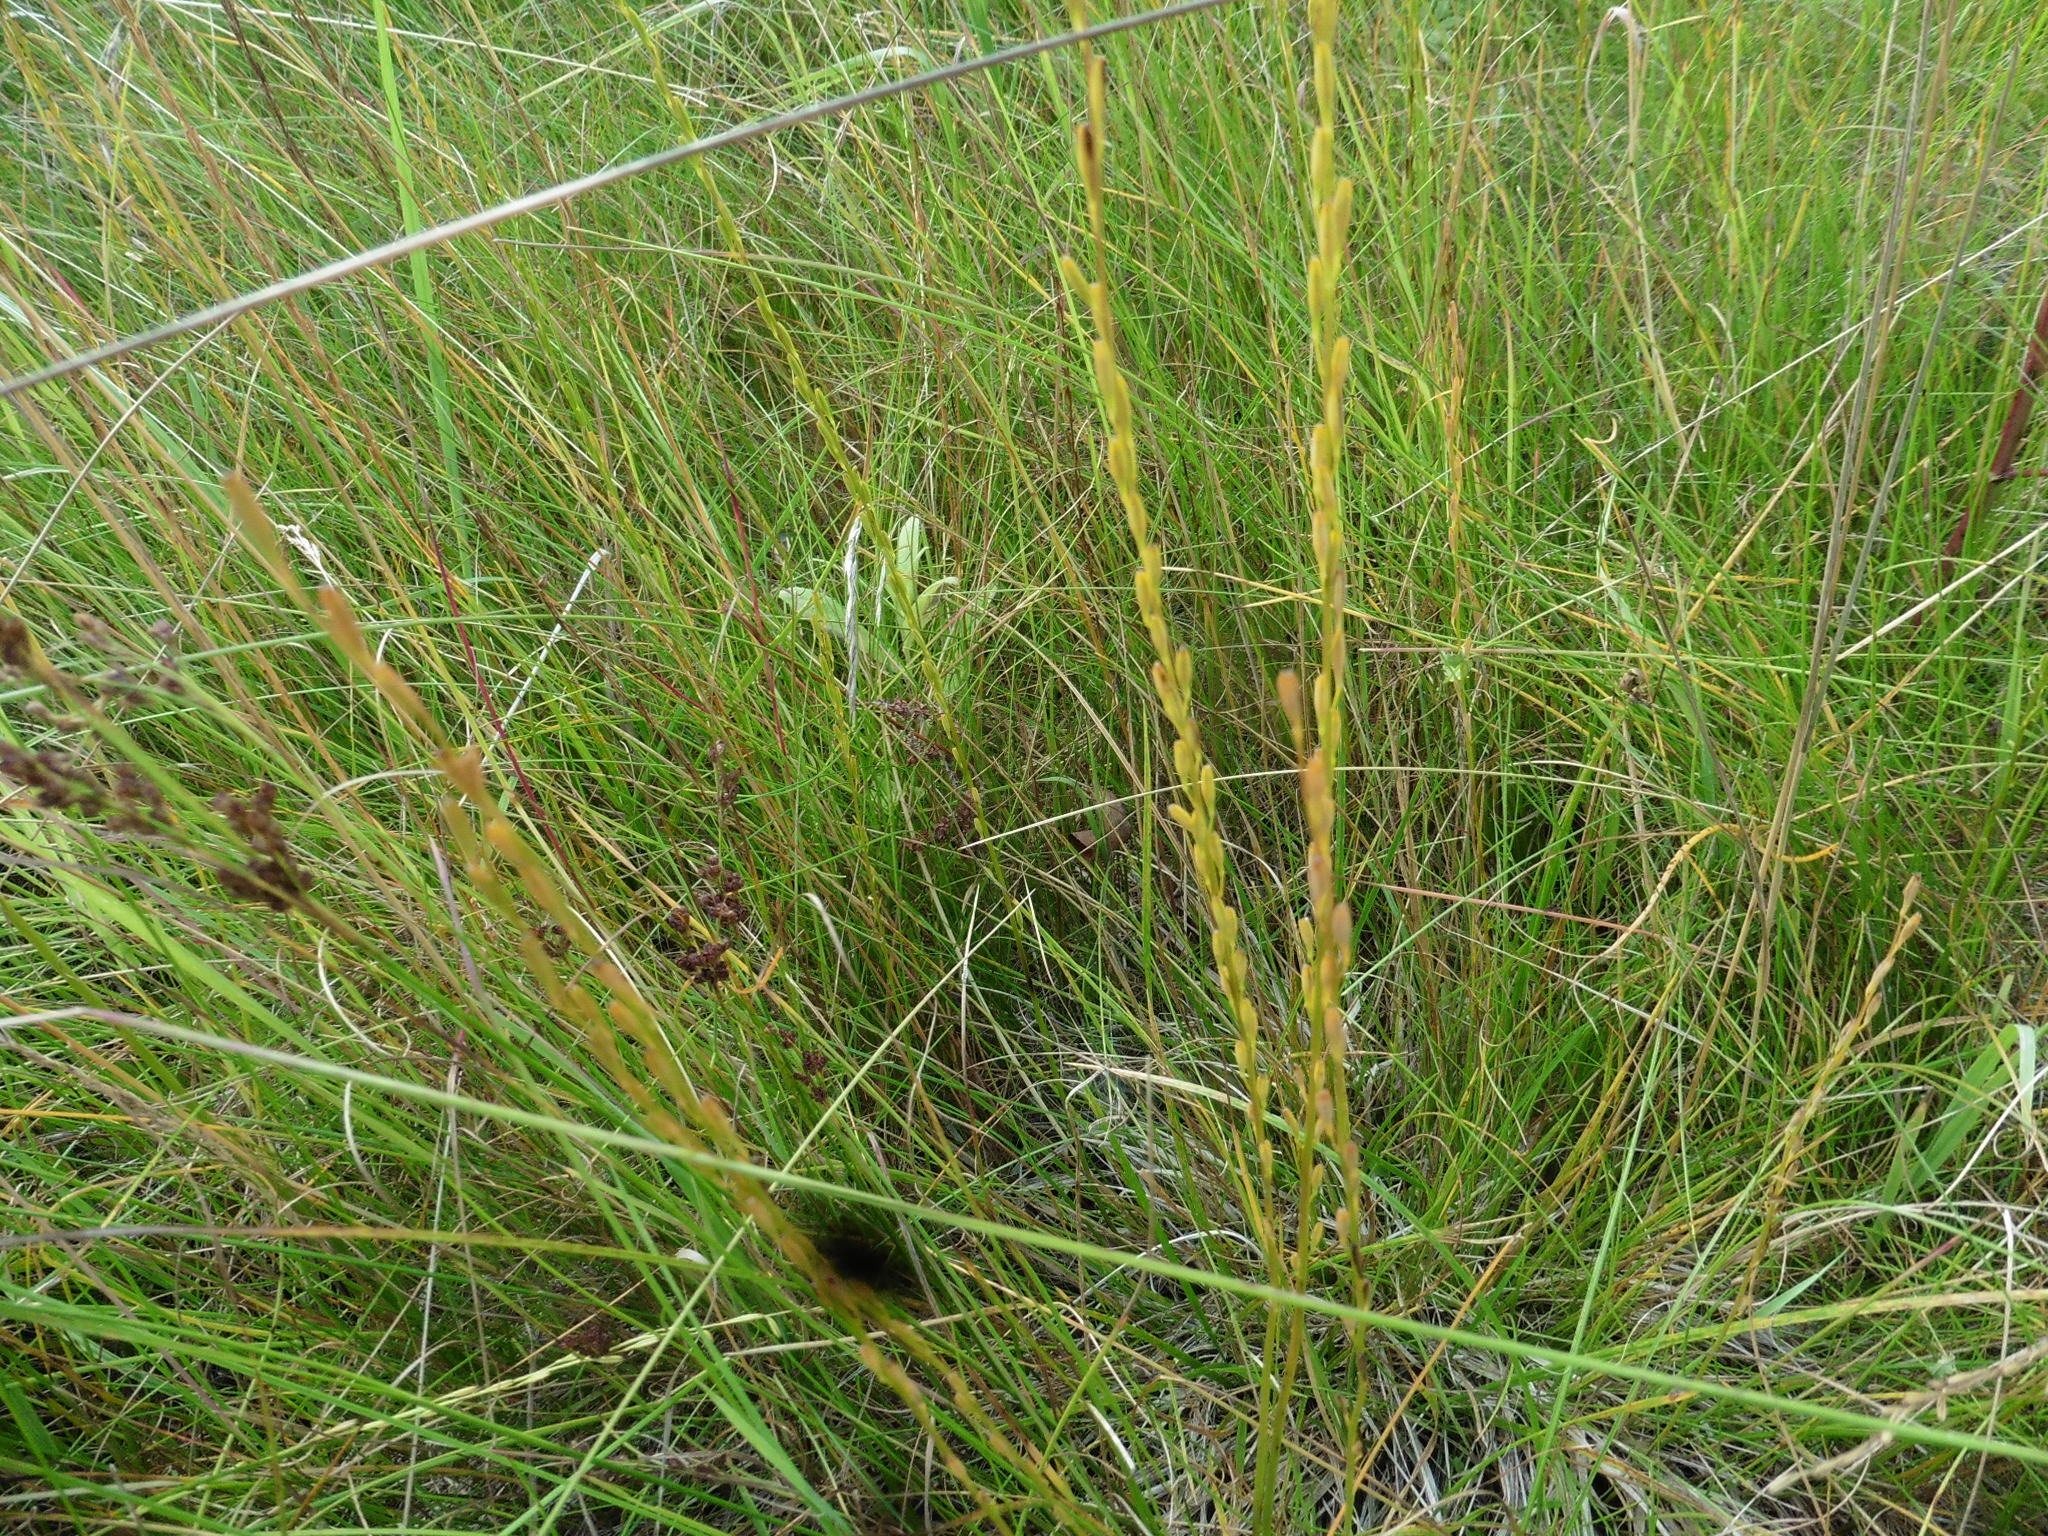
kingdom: Plantae
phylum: Tracheophyta
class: Liliopsida
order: Alismatales
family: Juncaginaceae
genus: Triglochin
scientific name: Triglochin palustris
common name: Marsh arrowgrass
